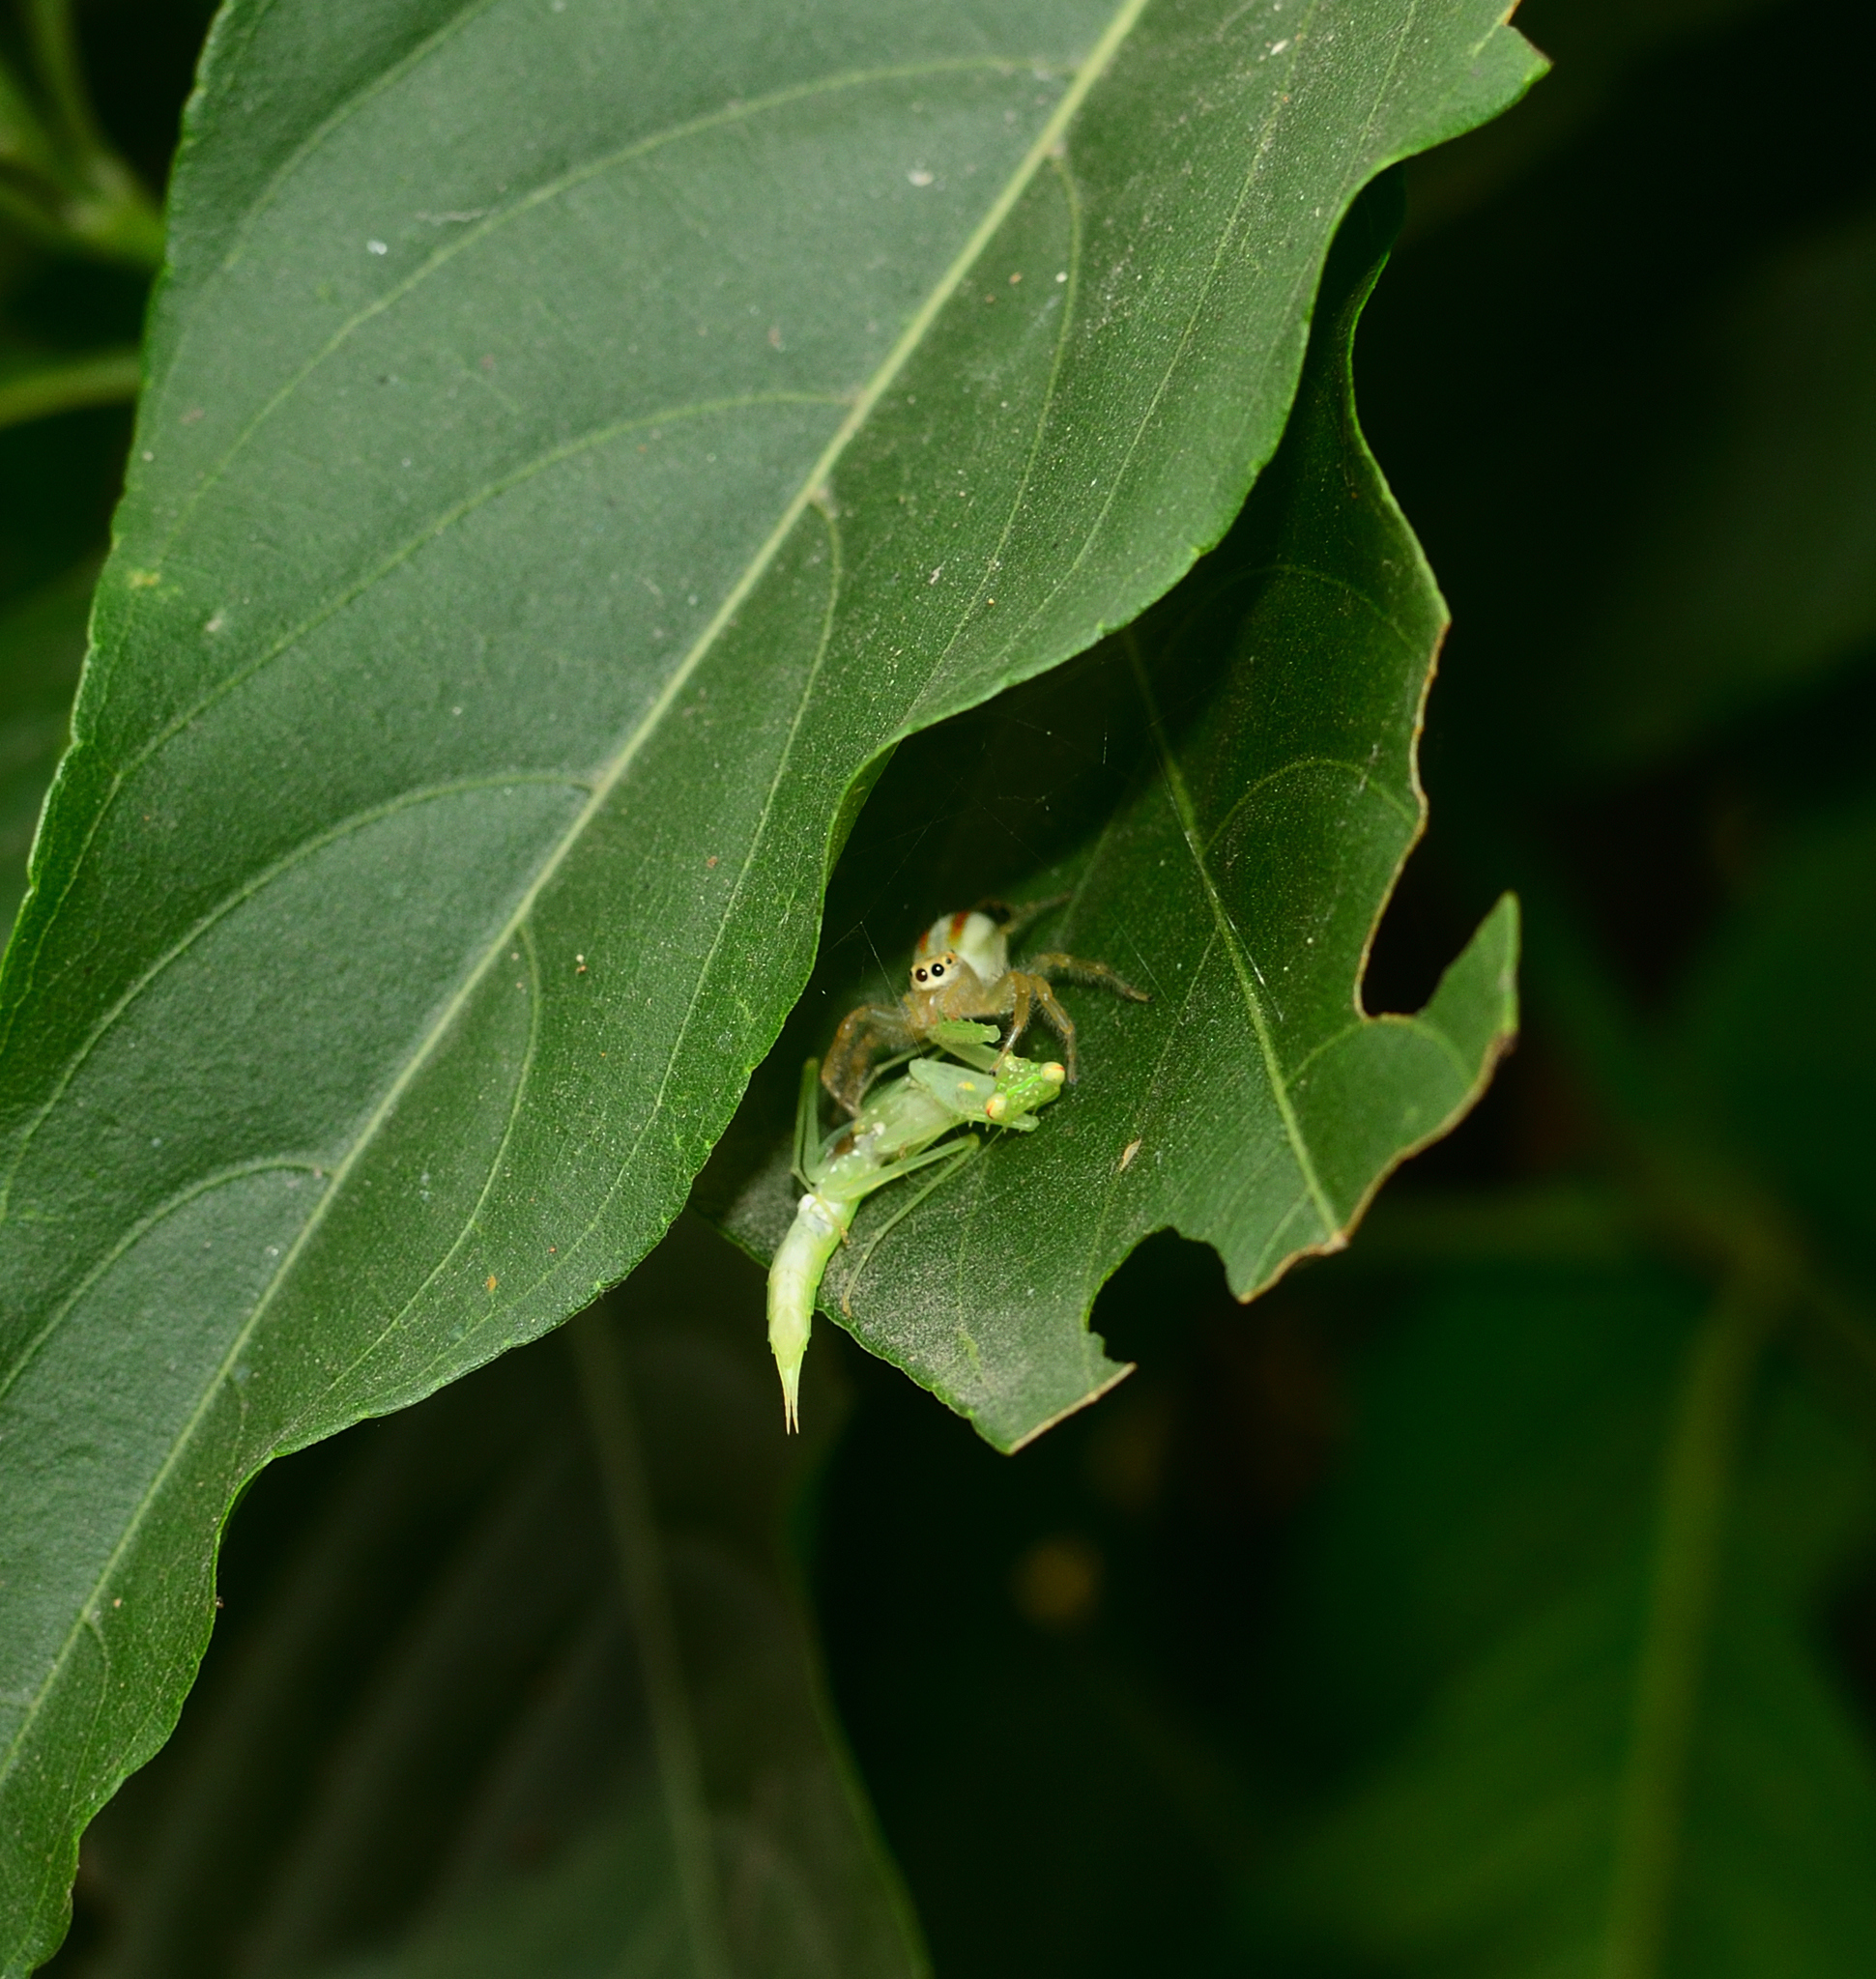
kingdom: Animalia
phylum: Arthropoda
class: Arachnida
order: Araneae
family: Salticidae
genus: Telamonia
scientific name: Telamonia dimidiata
